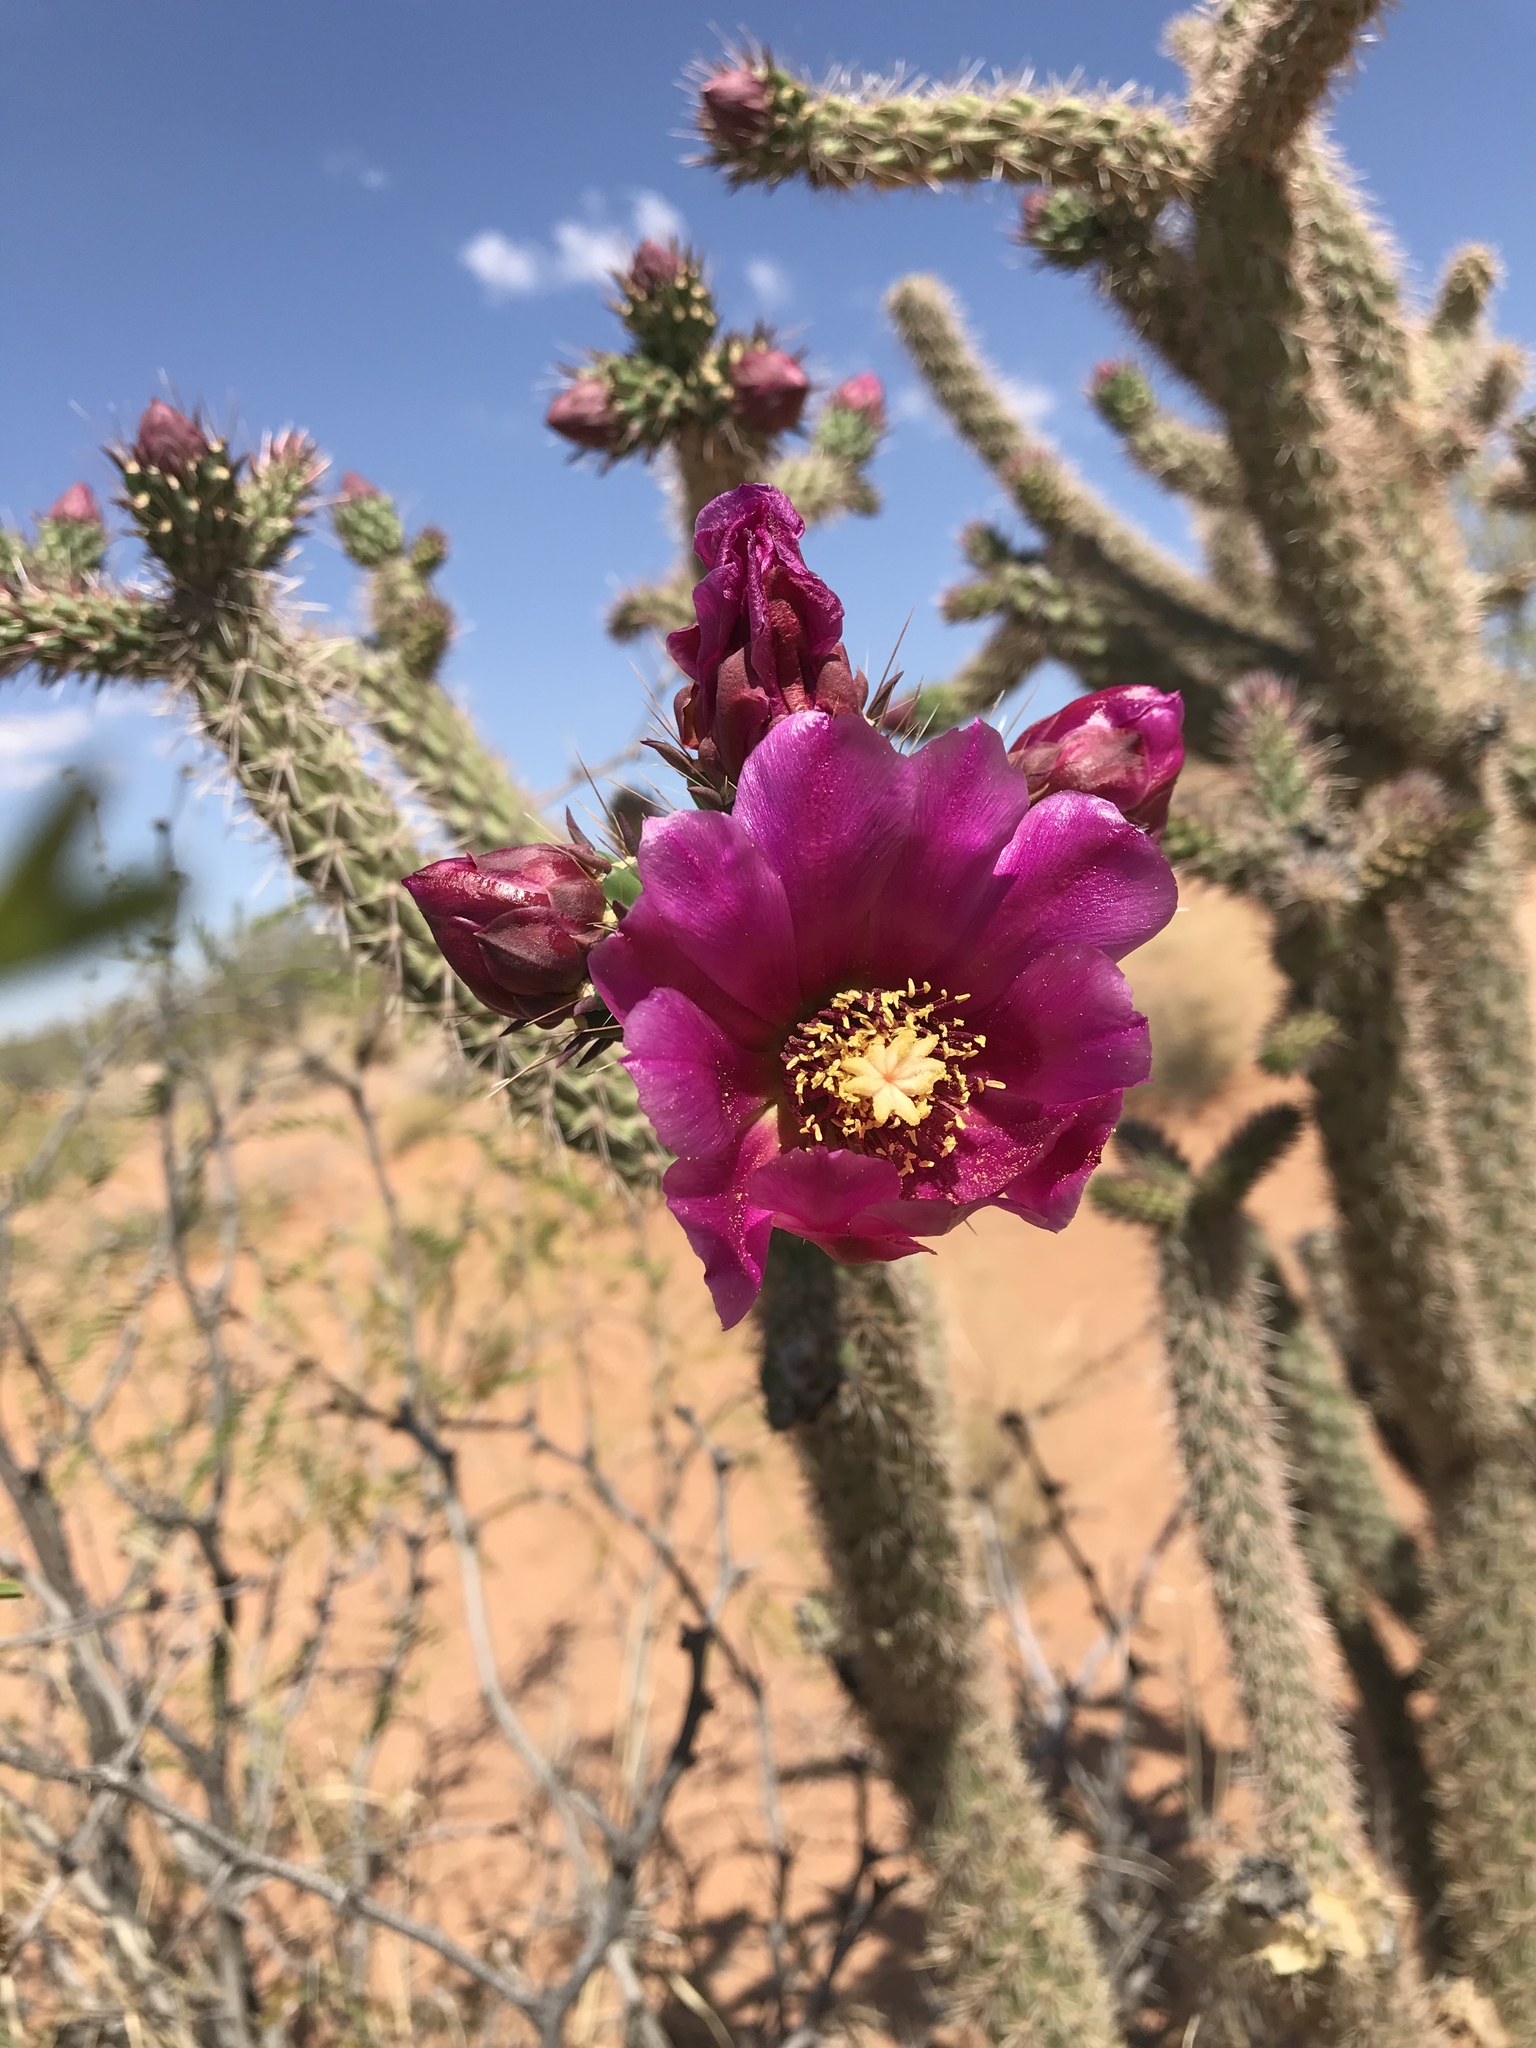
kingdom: Plantae
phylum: Tracheophyta
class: Magnoliopsida
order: Caryophyllales
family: Cactaceae
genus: Cylindropuntia
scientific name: Cylindropuntia imbricata
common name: Candelabrum cactus
